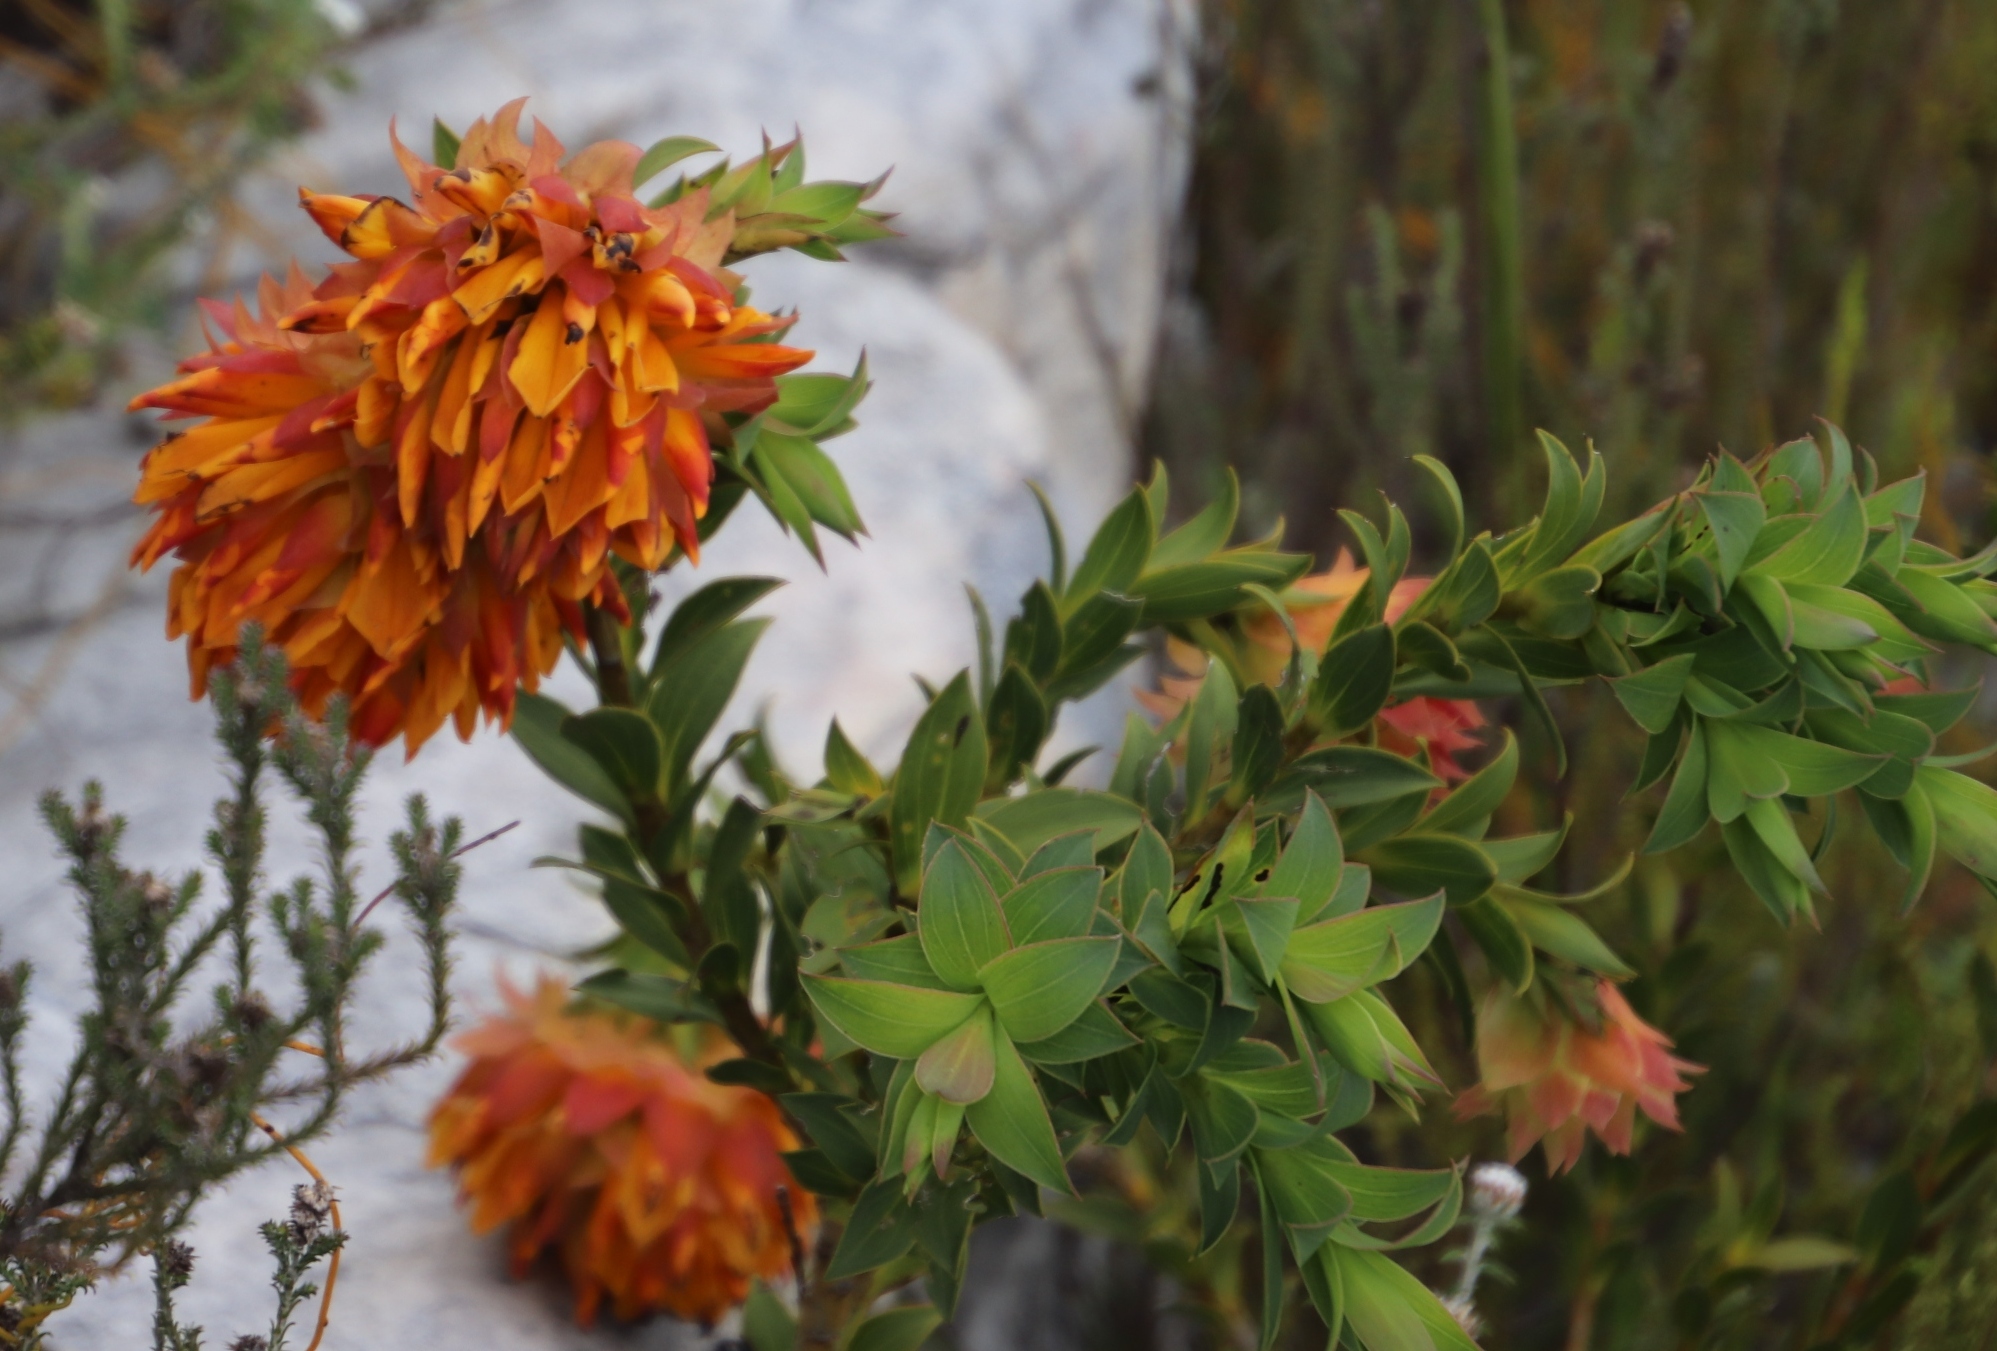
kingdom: Plantae
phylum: Tracheophyta
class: Magnoliopsida
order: Fabales
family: Fabaceae
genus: Liparia
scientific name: Liparia splendens
